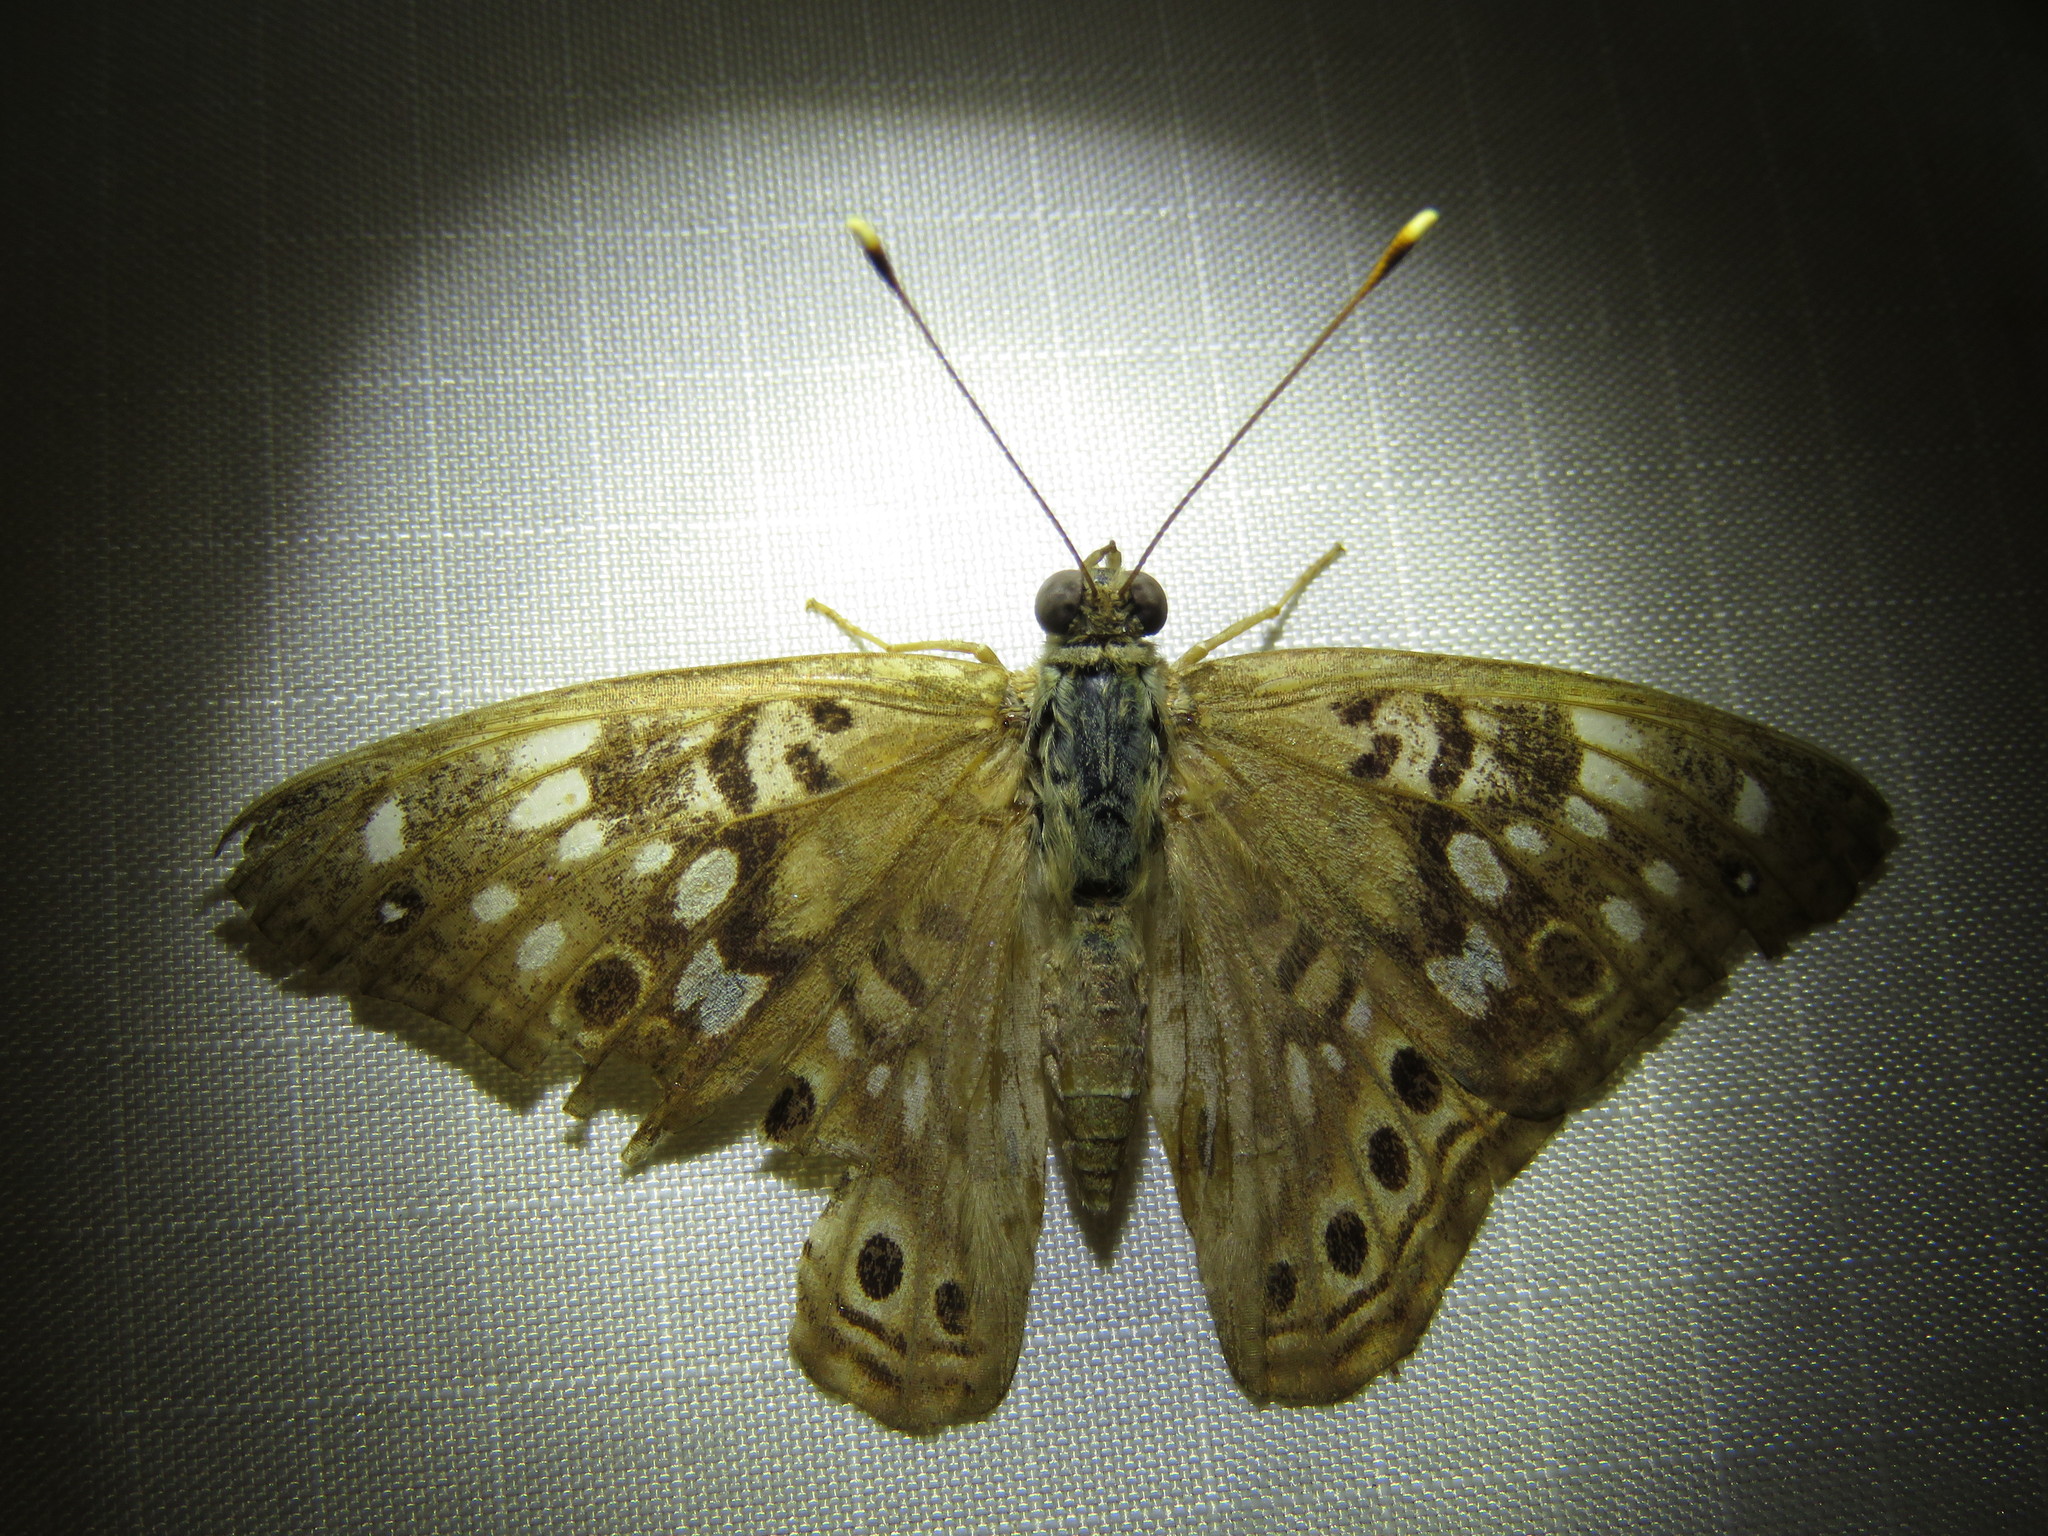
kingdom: Animalia
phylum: Arthropoda
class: Insecta
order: Lepidoptera
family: Nymphalidae
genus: Asterocampa
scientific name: Asterocampa celtis
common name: Hackberry emperor
